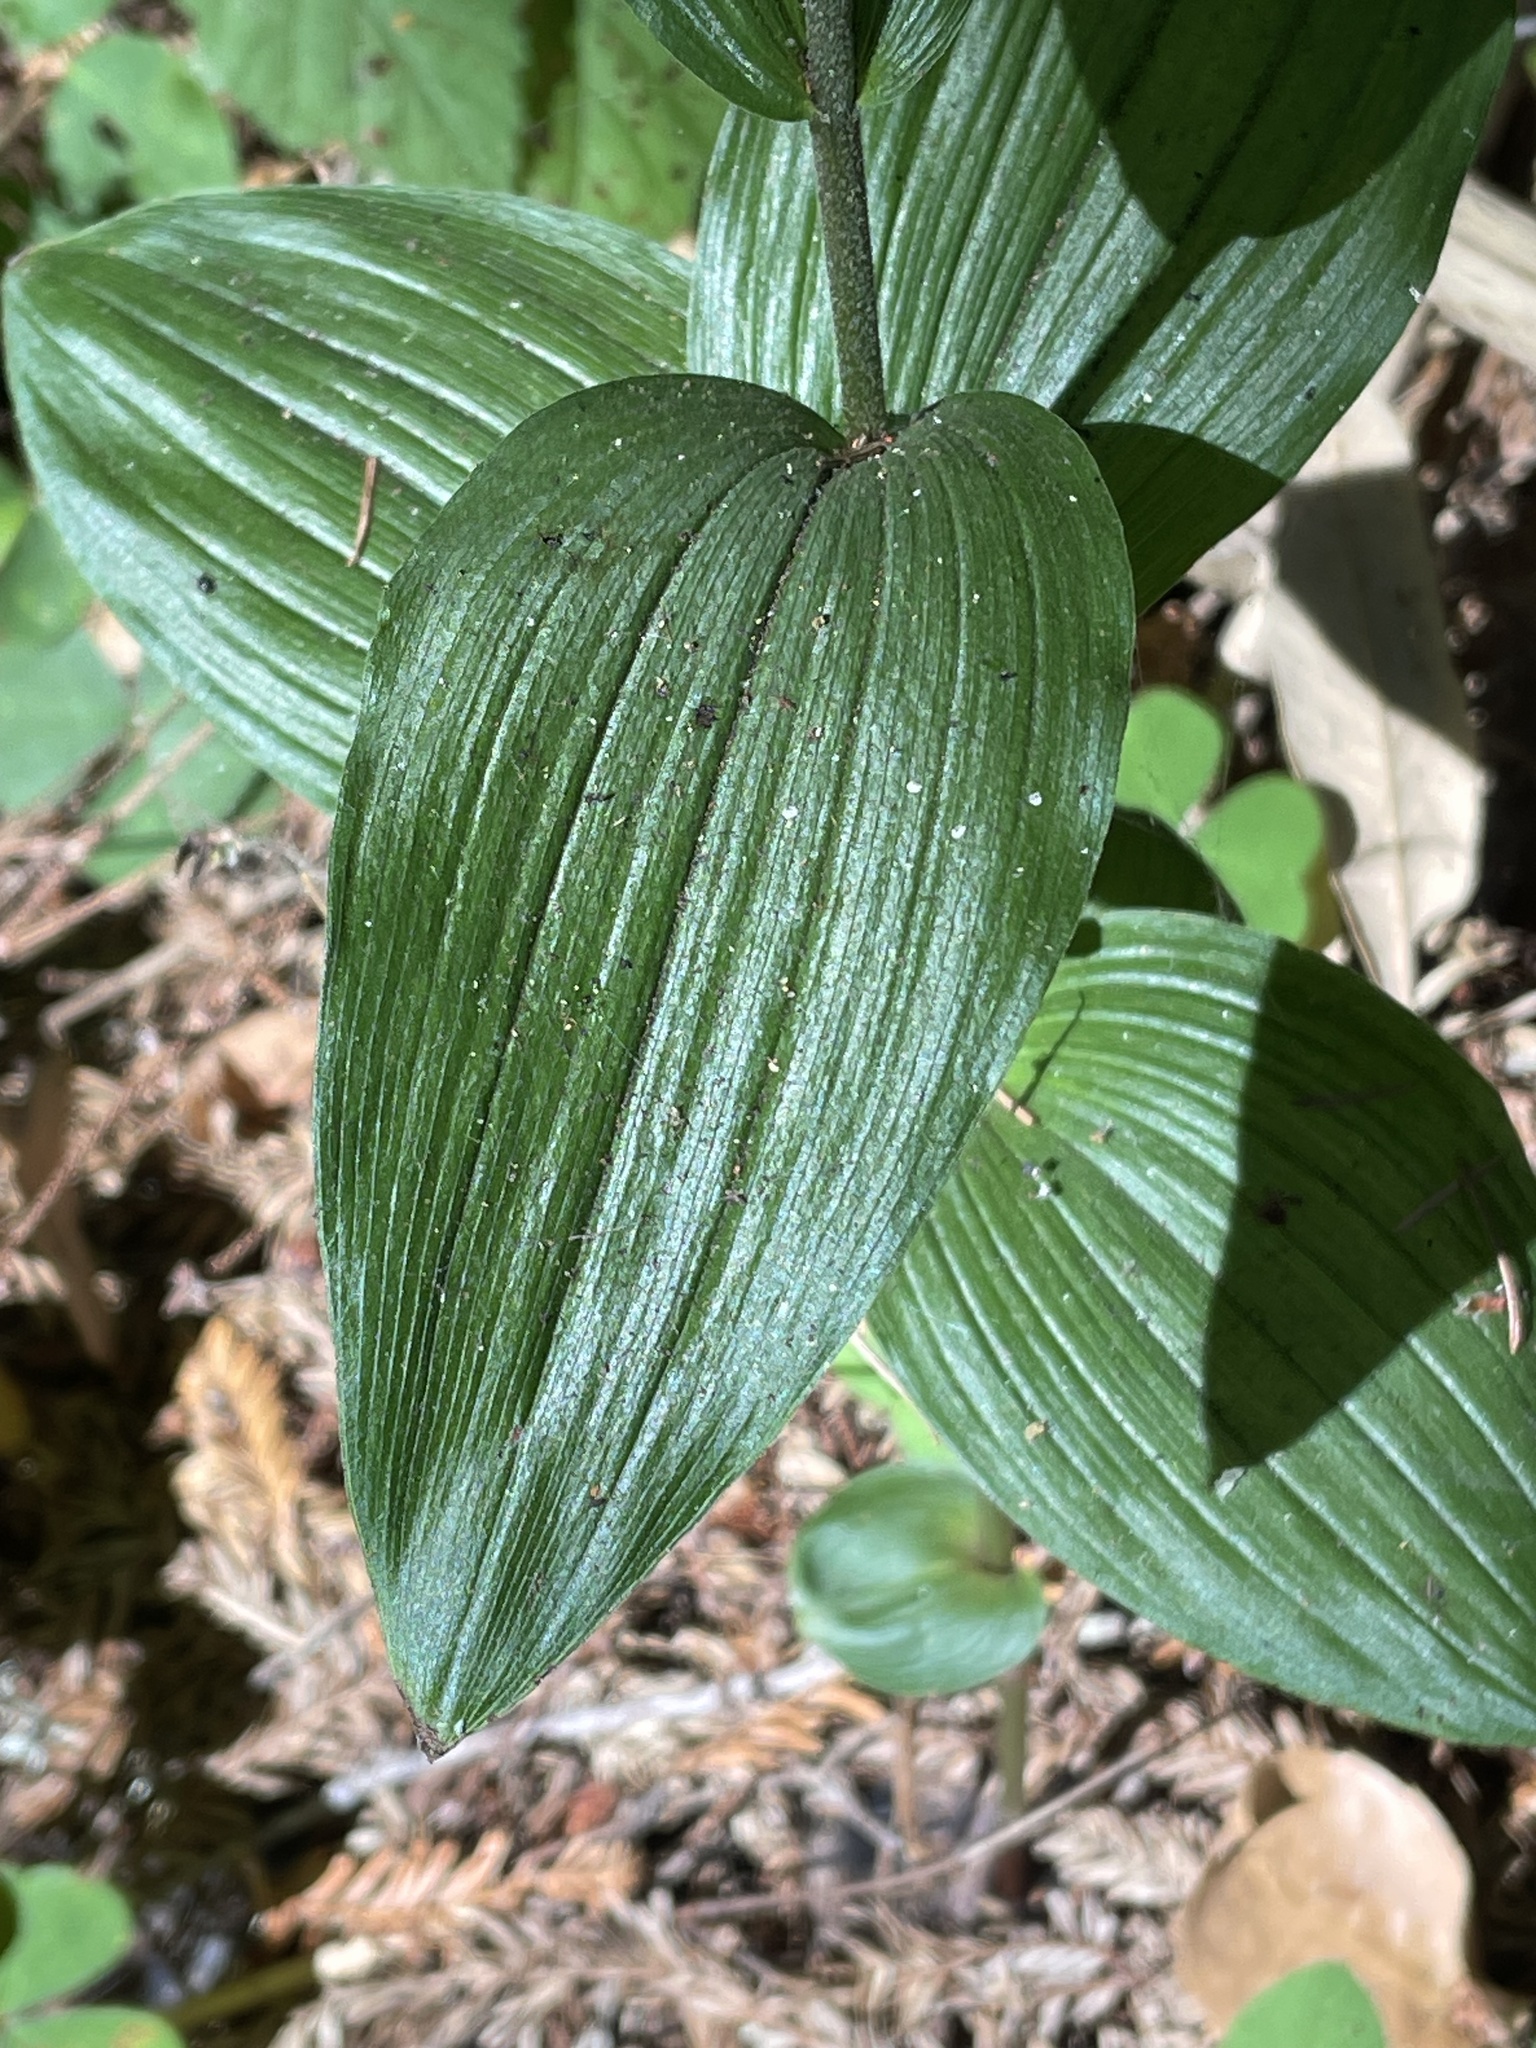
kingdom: Plantae
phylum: Tracheophyta
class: Liliopsida
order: Asparagales
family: Orchidaceae
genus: Epipactis
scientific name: Epipactis helleborine
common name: Broad-leaved helleborine
